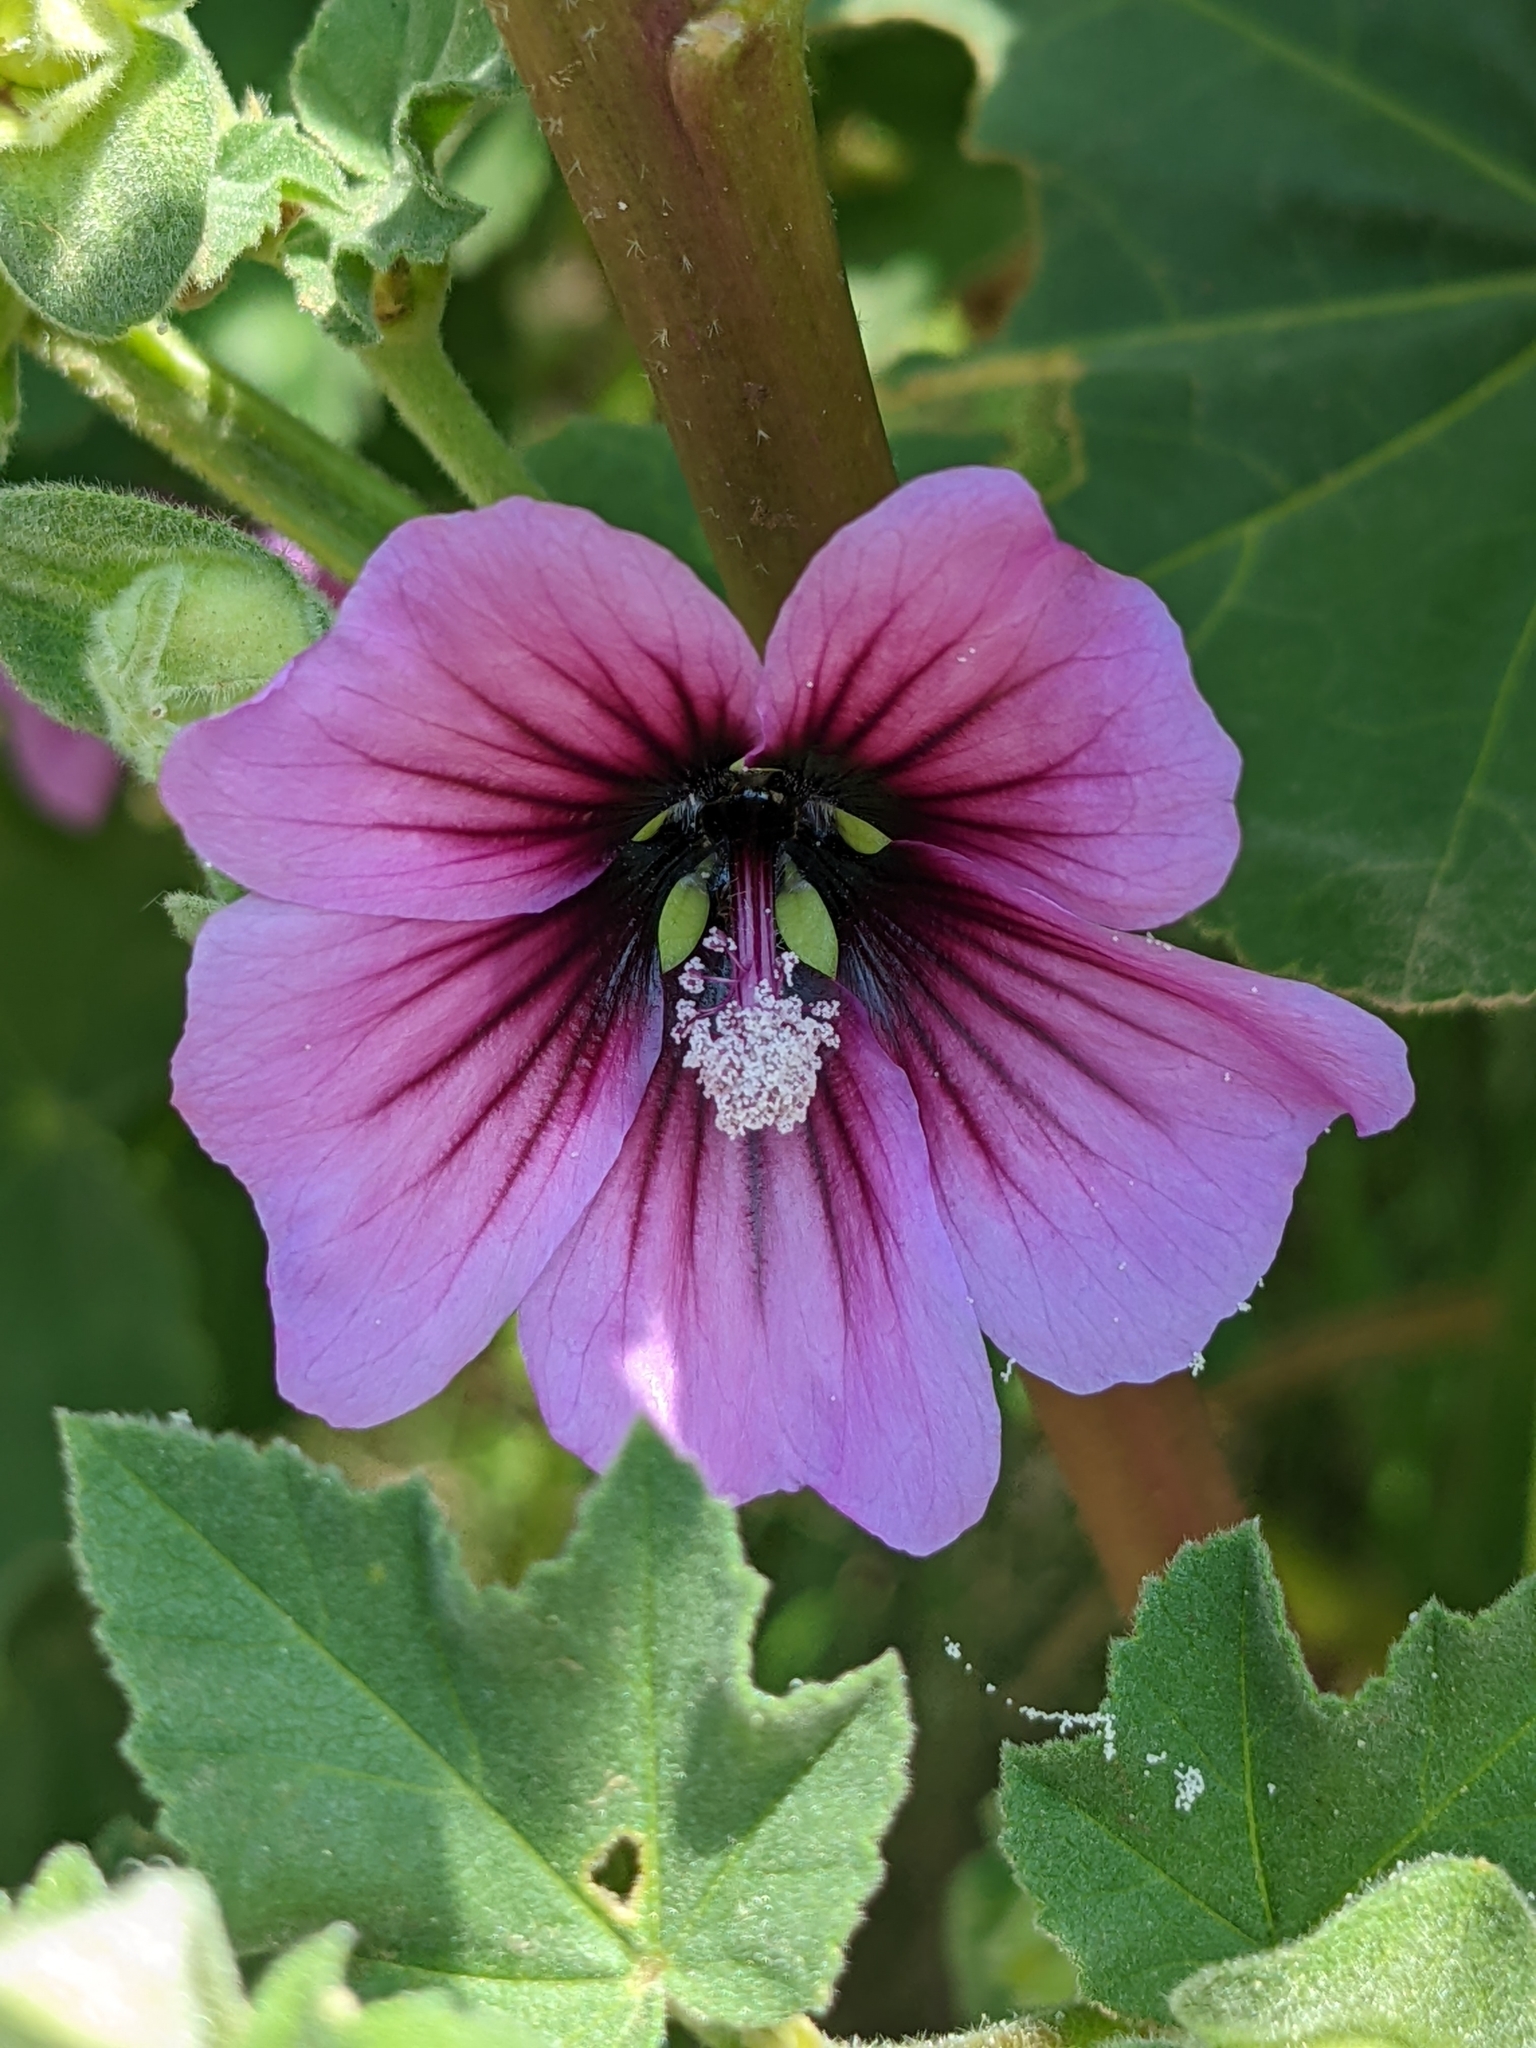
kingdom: Plantae
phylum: Tracheophyta
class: Magnoliopsida
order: Malvales
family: Malvaceae
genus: Malva
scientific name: Malva arborea
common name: Tree mallow
